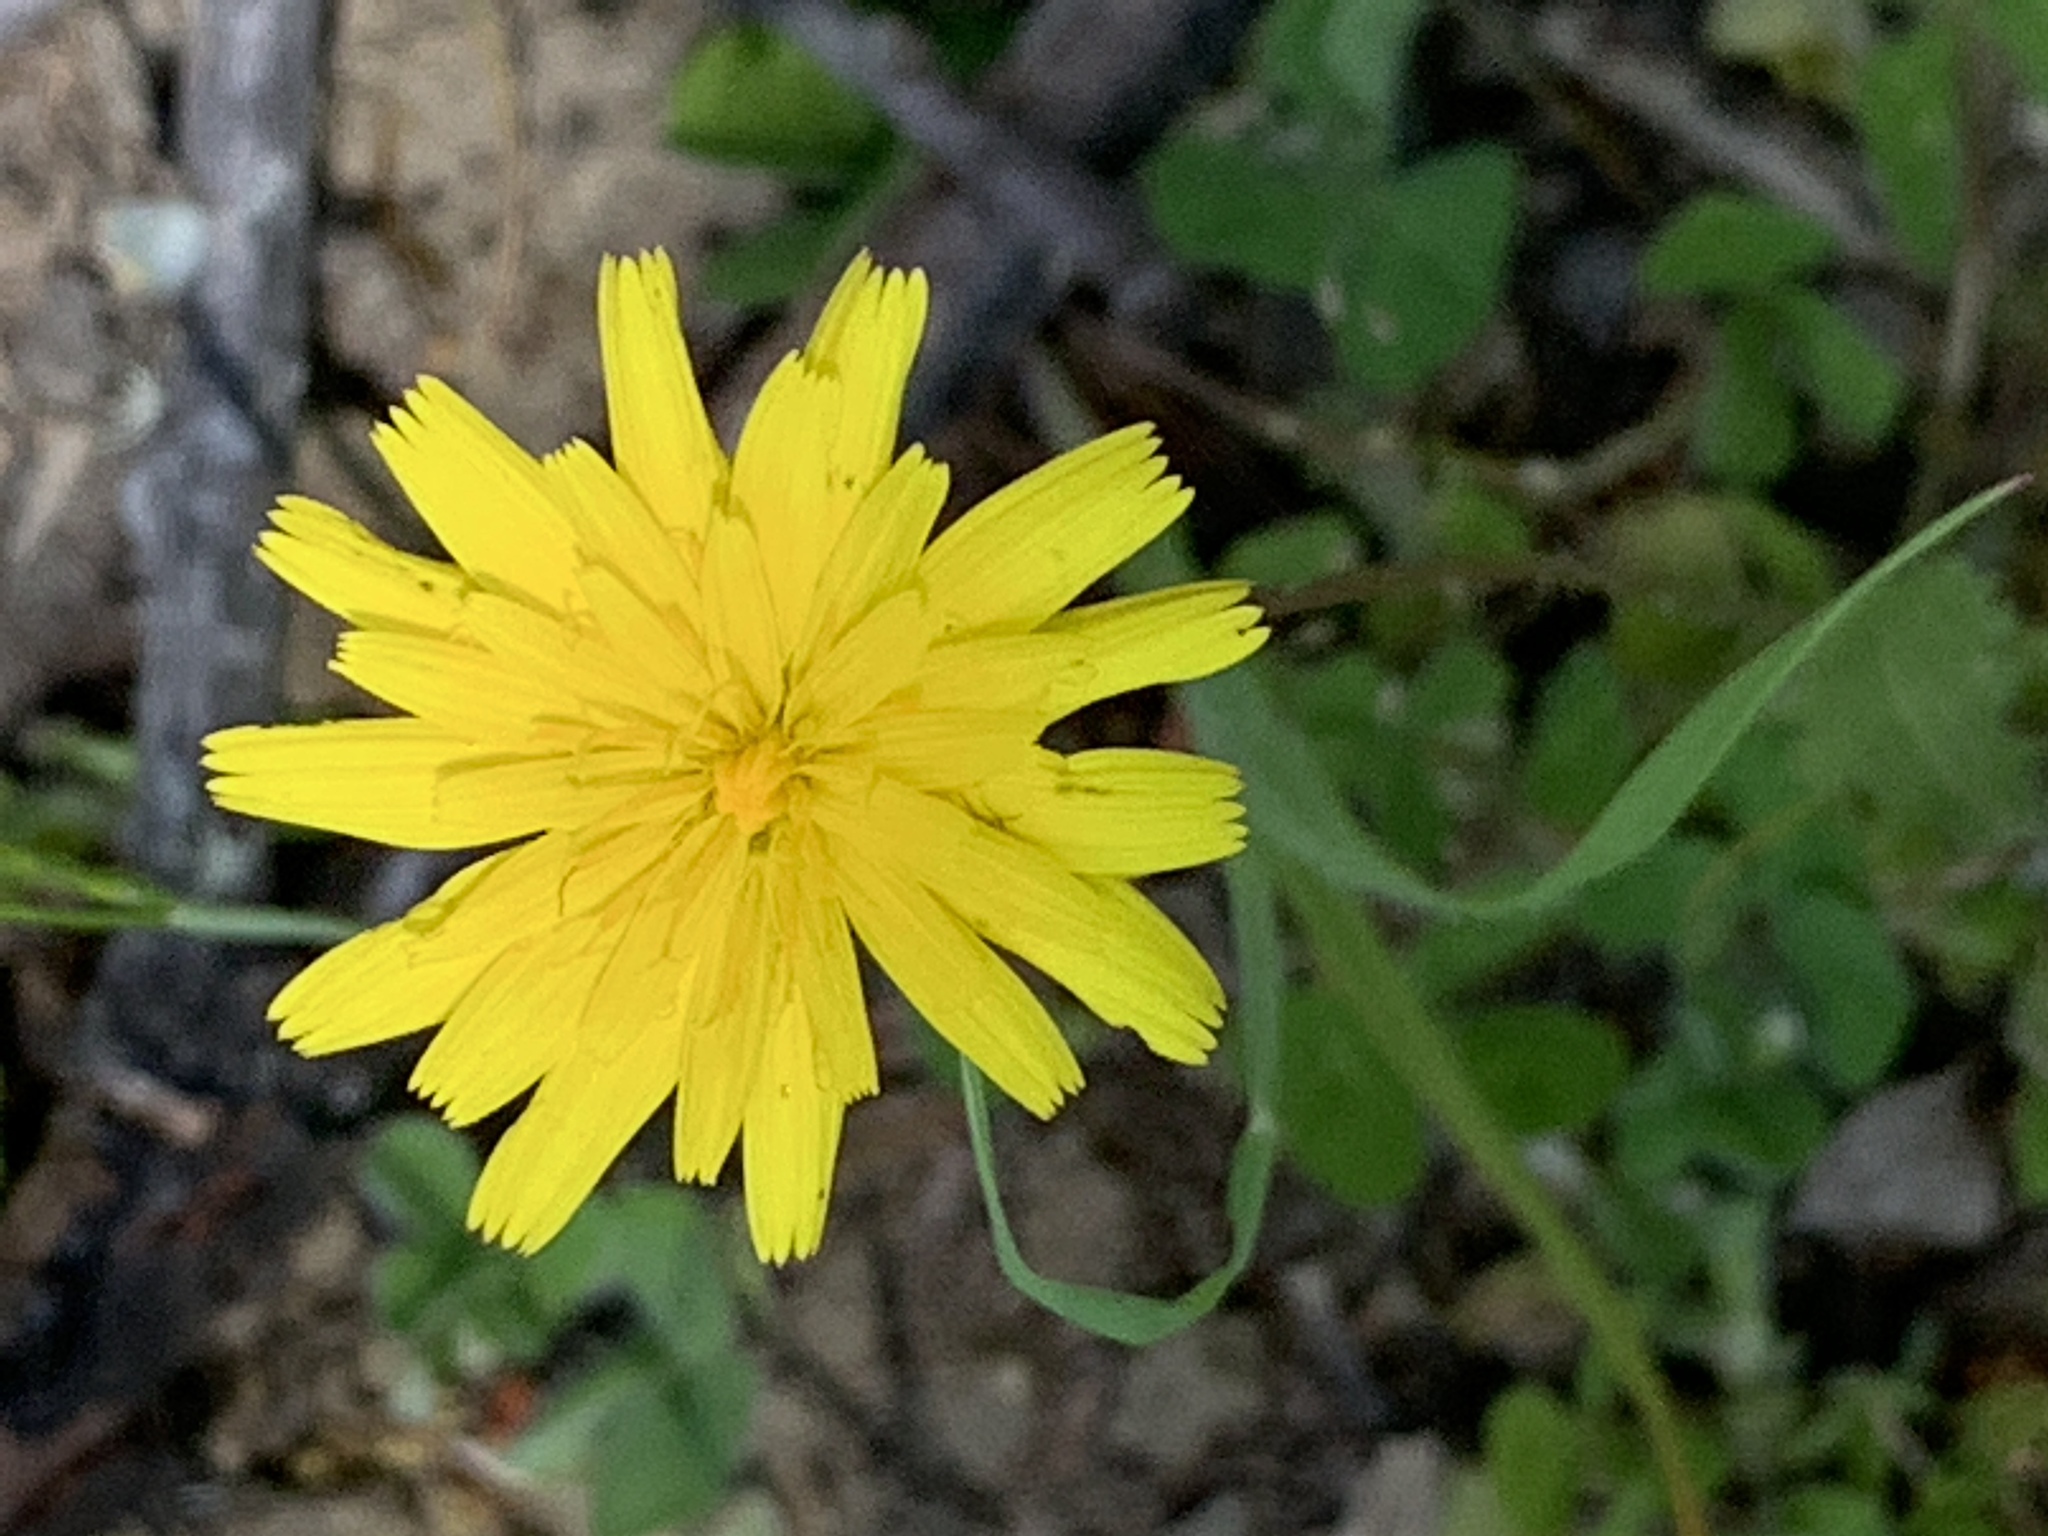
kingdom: Plantae
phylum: Tracheophyta
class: Magnoliopsida
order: Asterales
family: Asteraceae
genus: Taraxacum
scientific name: Taraxacum officinale
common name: Common dandelion
